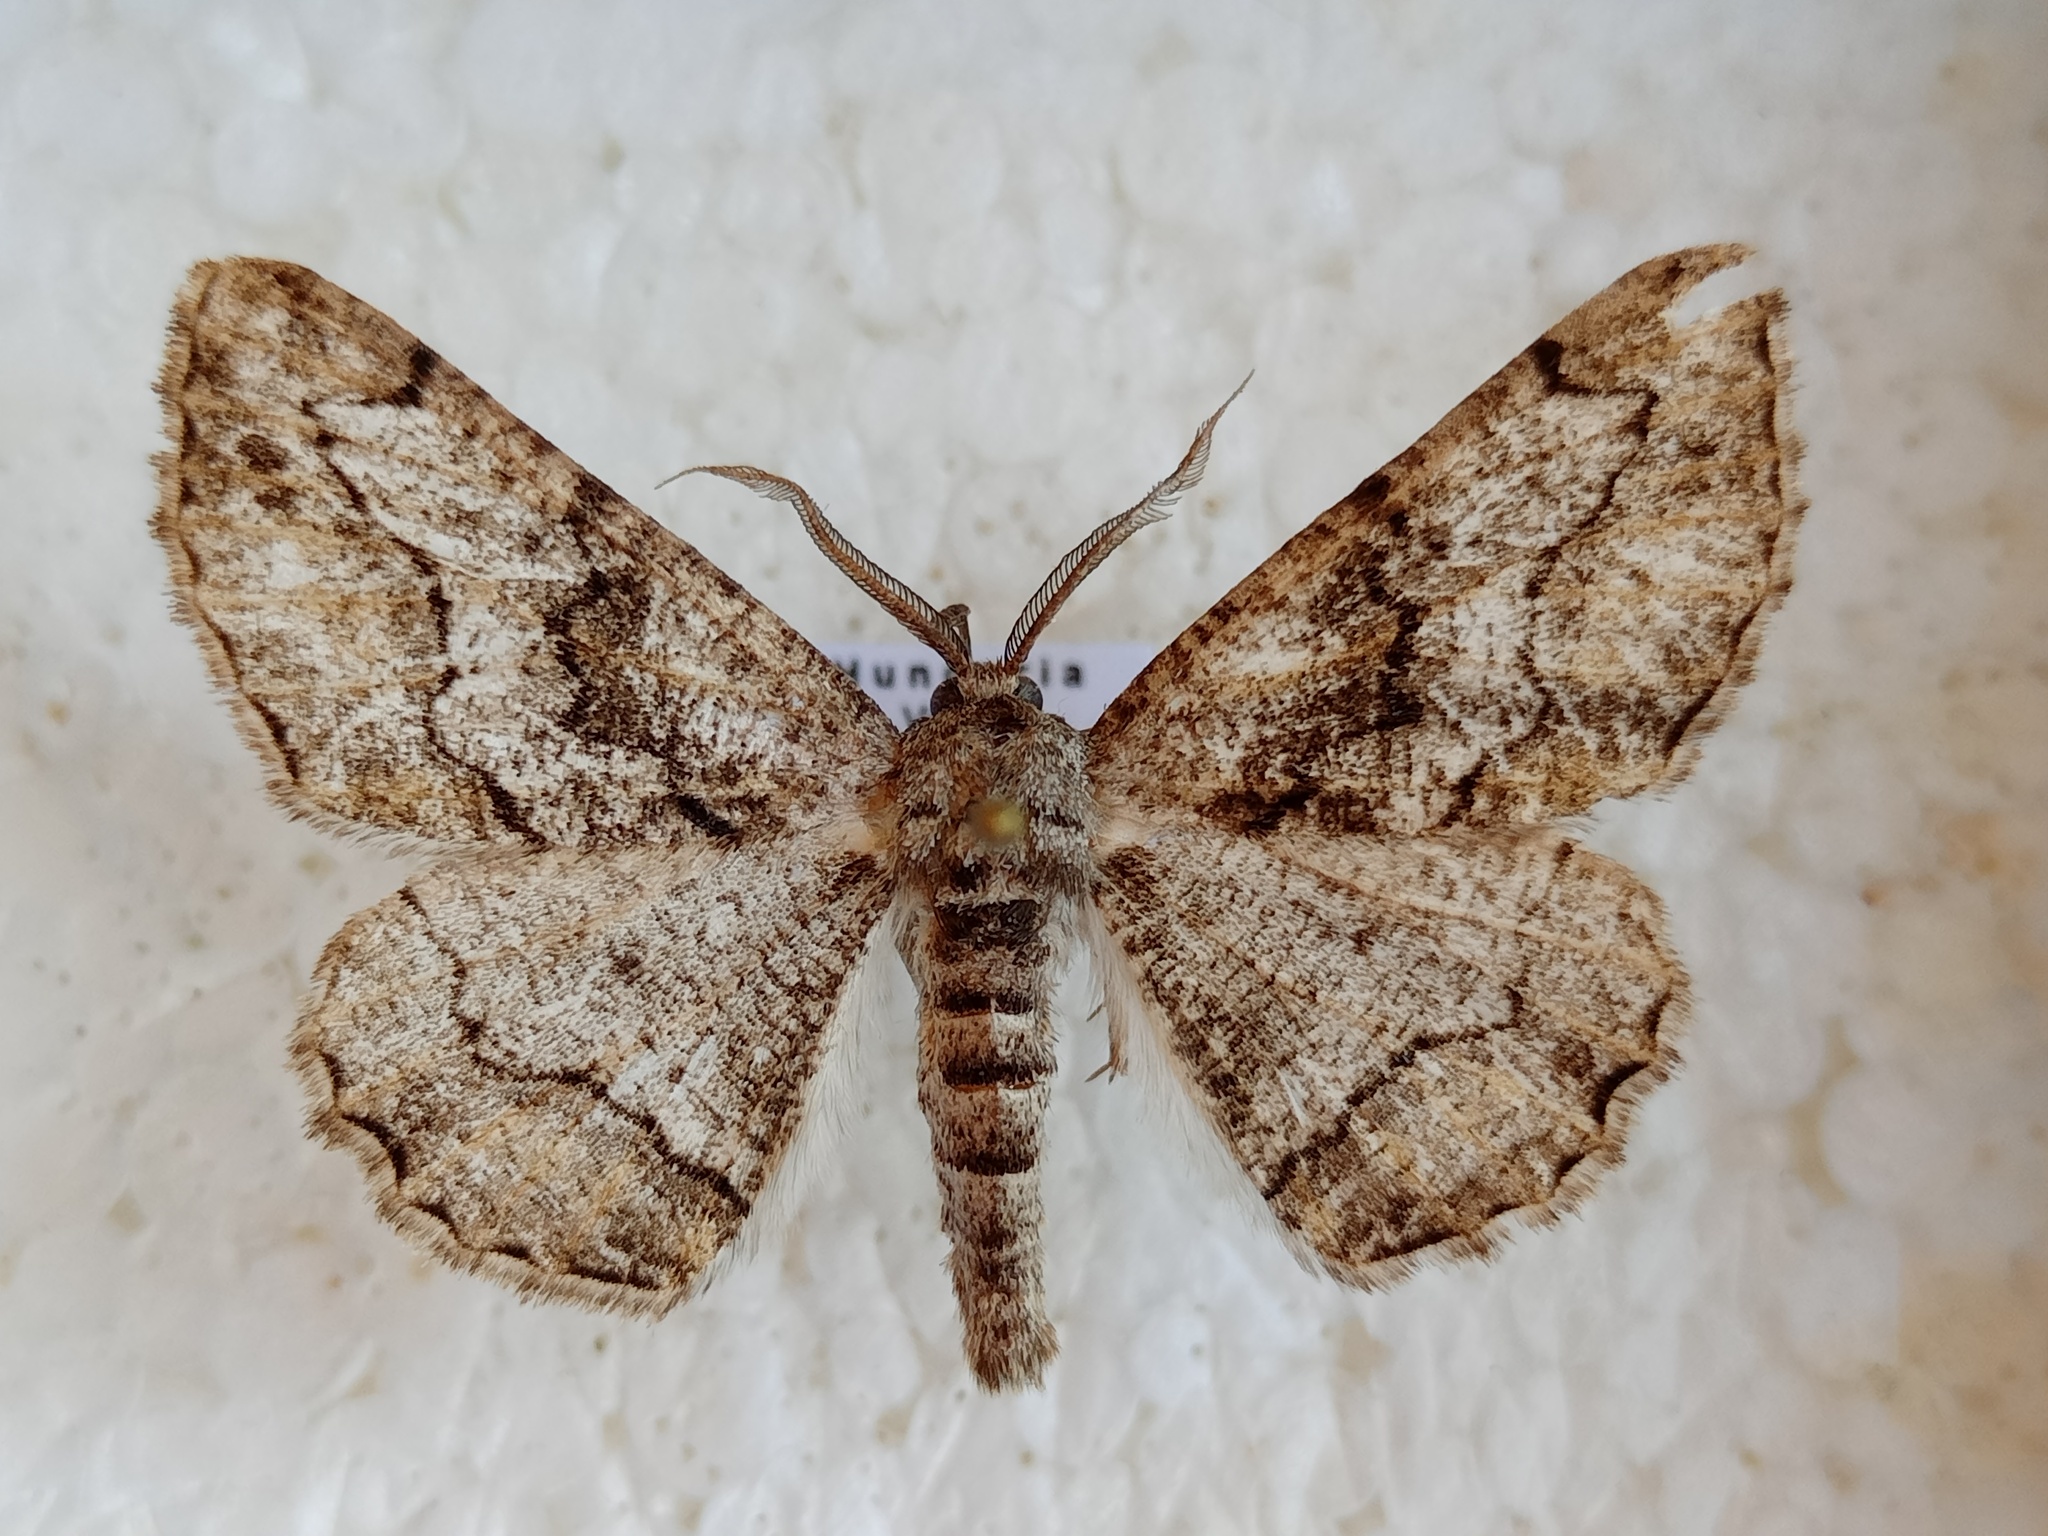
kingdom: Animalia
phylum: Arthropoda
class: Insecta
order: Lepidoptera
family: Geometridae
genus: Synopsia
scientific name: Synopsia sociaria
